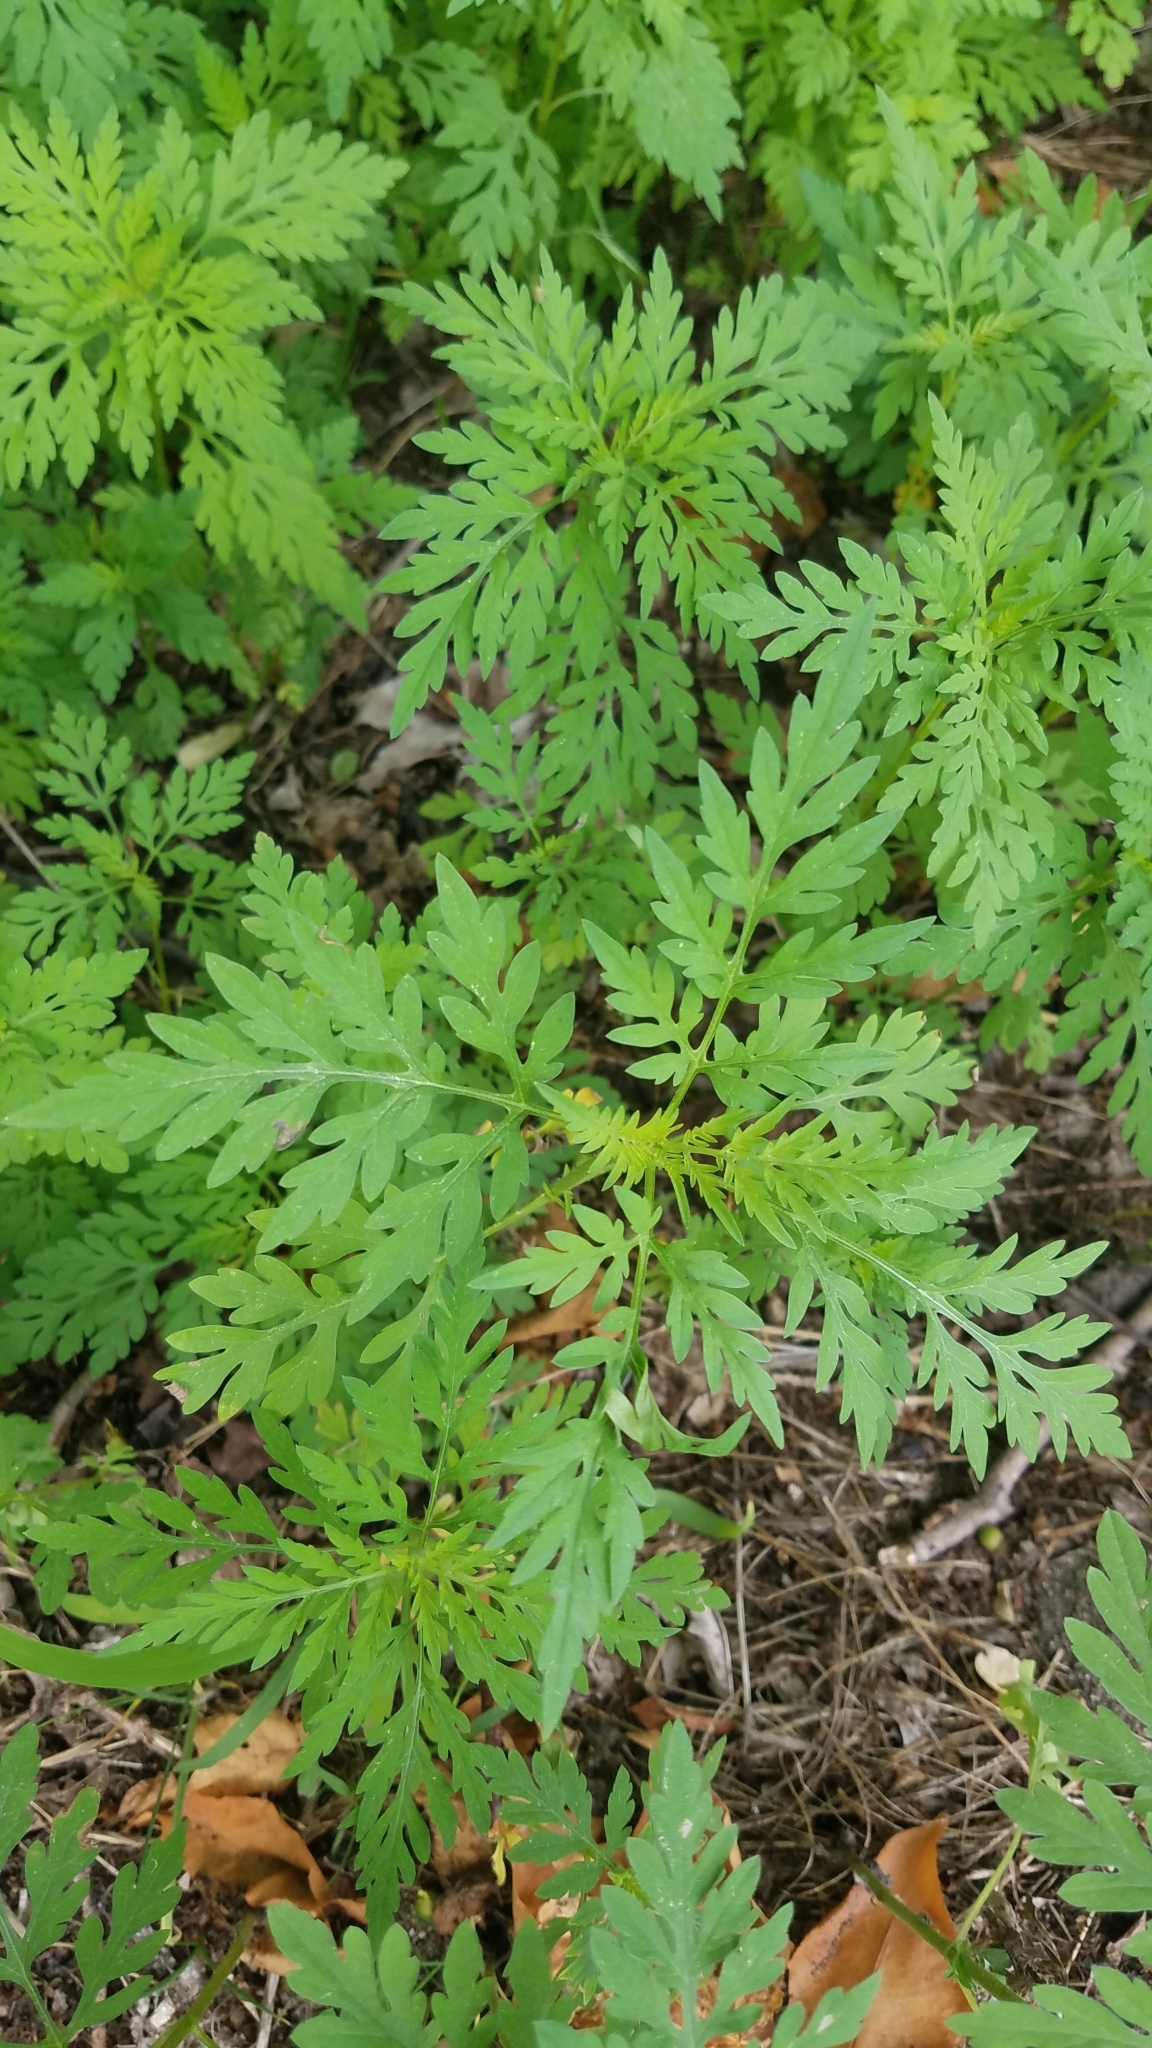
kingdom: Plantae
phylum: Tracheophyta
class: Magnoliopsida
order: Asterales
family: Asteraceae
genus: Ambrosia
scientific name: Ambrosia artemisiifolia
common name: Annual ragweed
